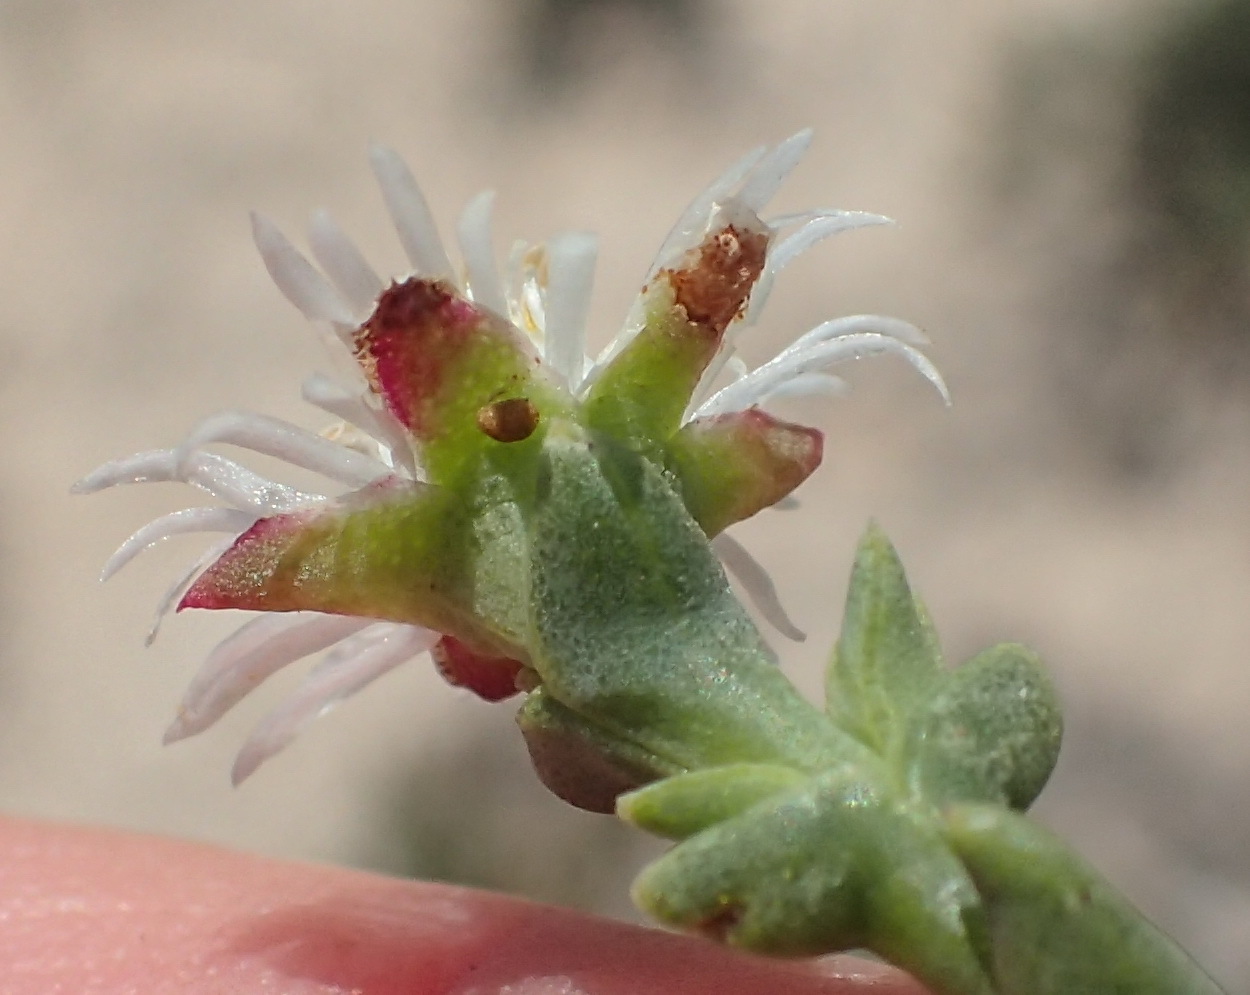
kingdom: Plantae
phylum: Tracheophyta
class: Magnoliopsida
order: Caryophyllales
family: Aizoaceae
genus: Ruschia
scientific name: Ruschia multiflora
